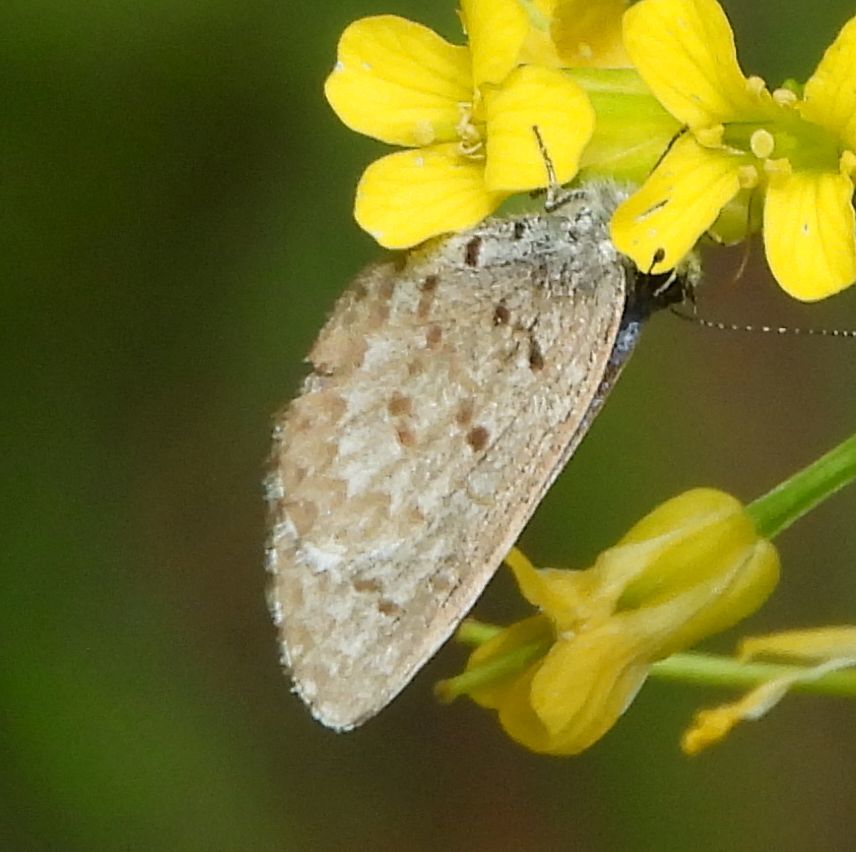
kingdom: Animalia
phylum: Arthropoda
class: Insecta
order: Lepidoptera
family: Lycaenidae
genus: Celastrina
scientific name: Celastrina lucia
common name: Lucia azure
